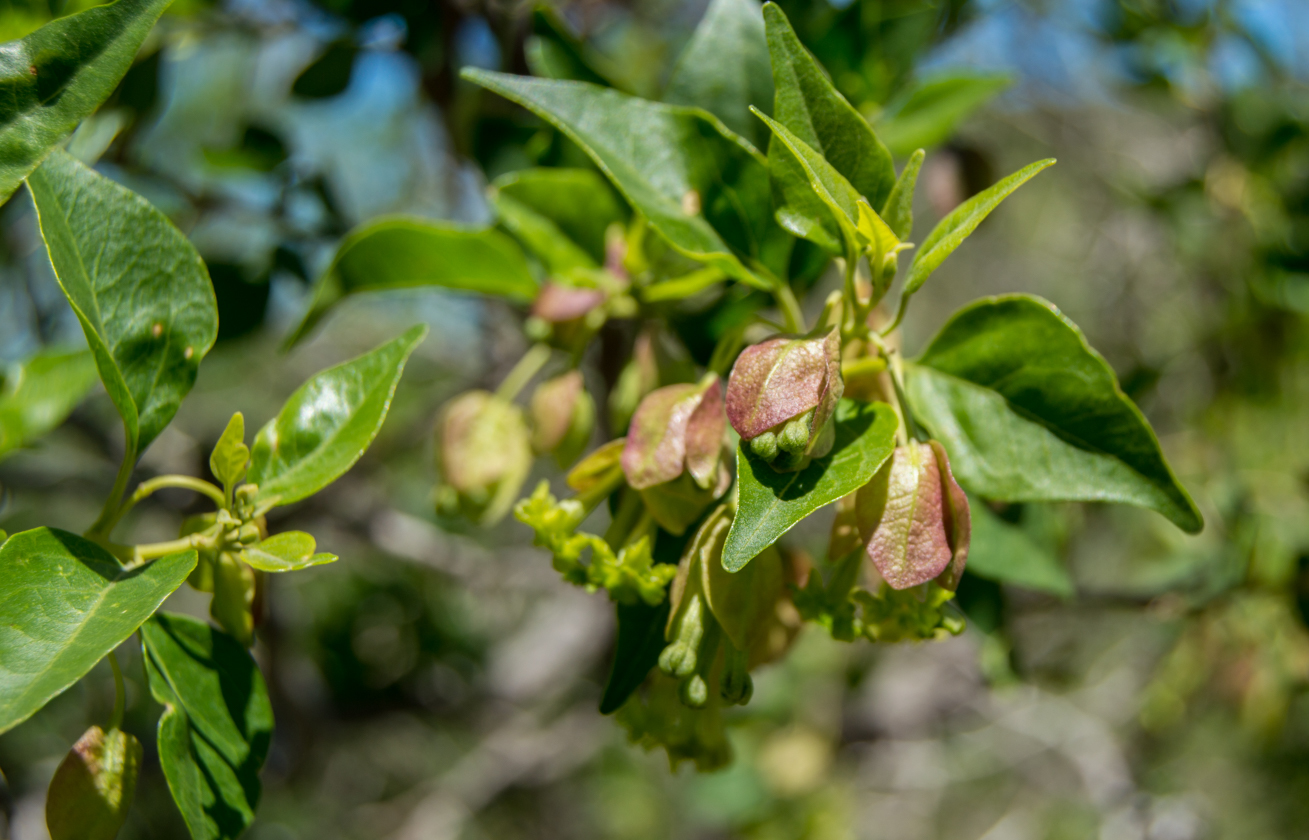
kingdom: Plantae
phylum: Tracheophyta
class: Magnoliopsida
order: Caryophyllales
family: Nyctaginaceae
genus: Bougainvillea
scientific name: Bougainvillea stipitata
